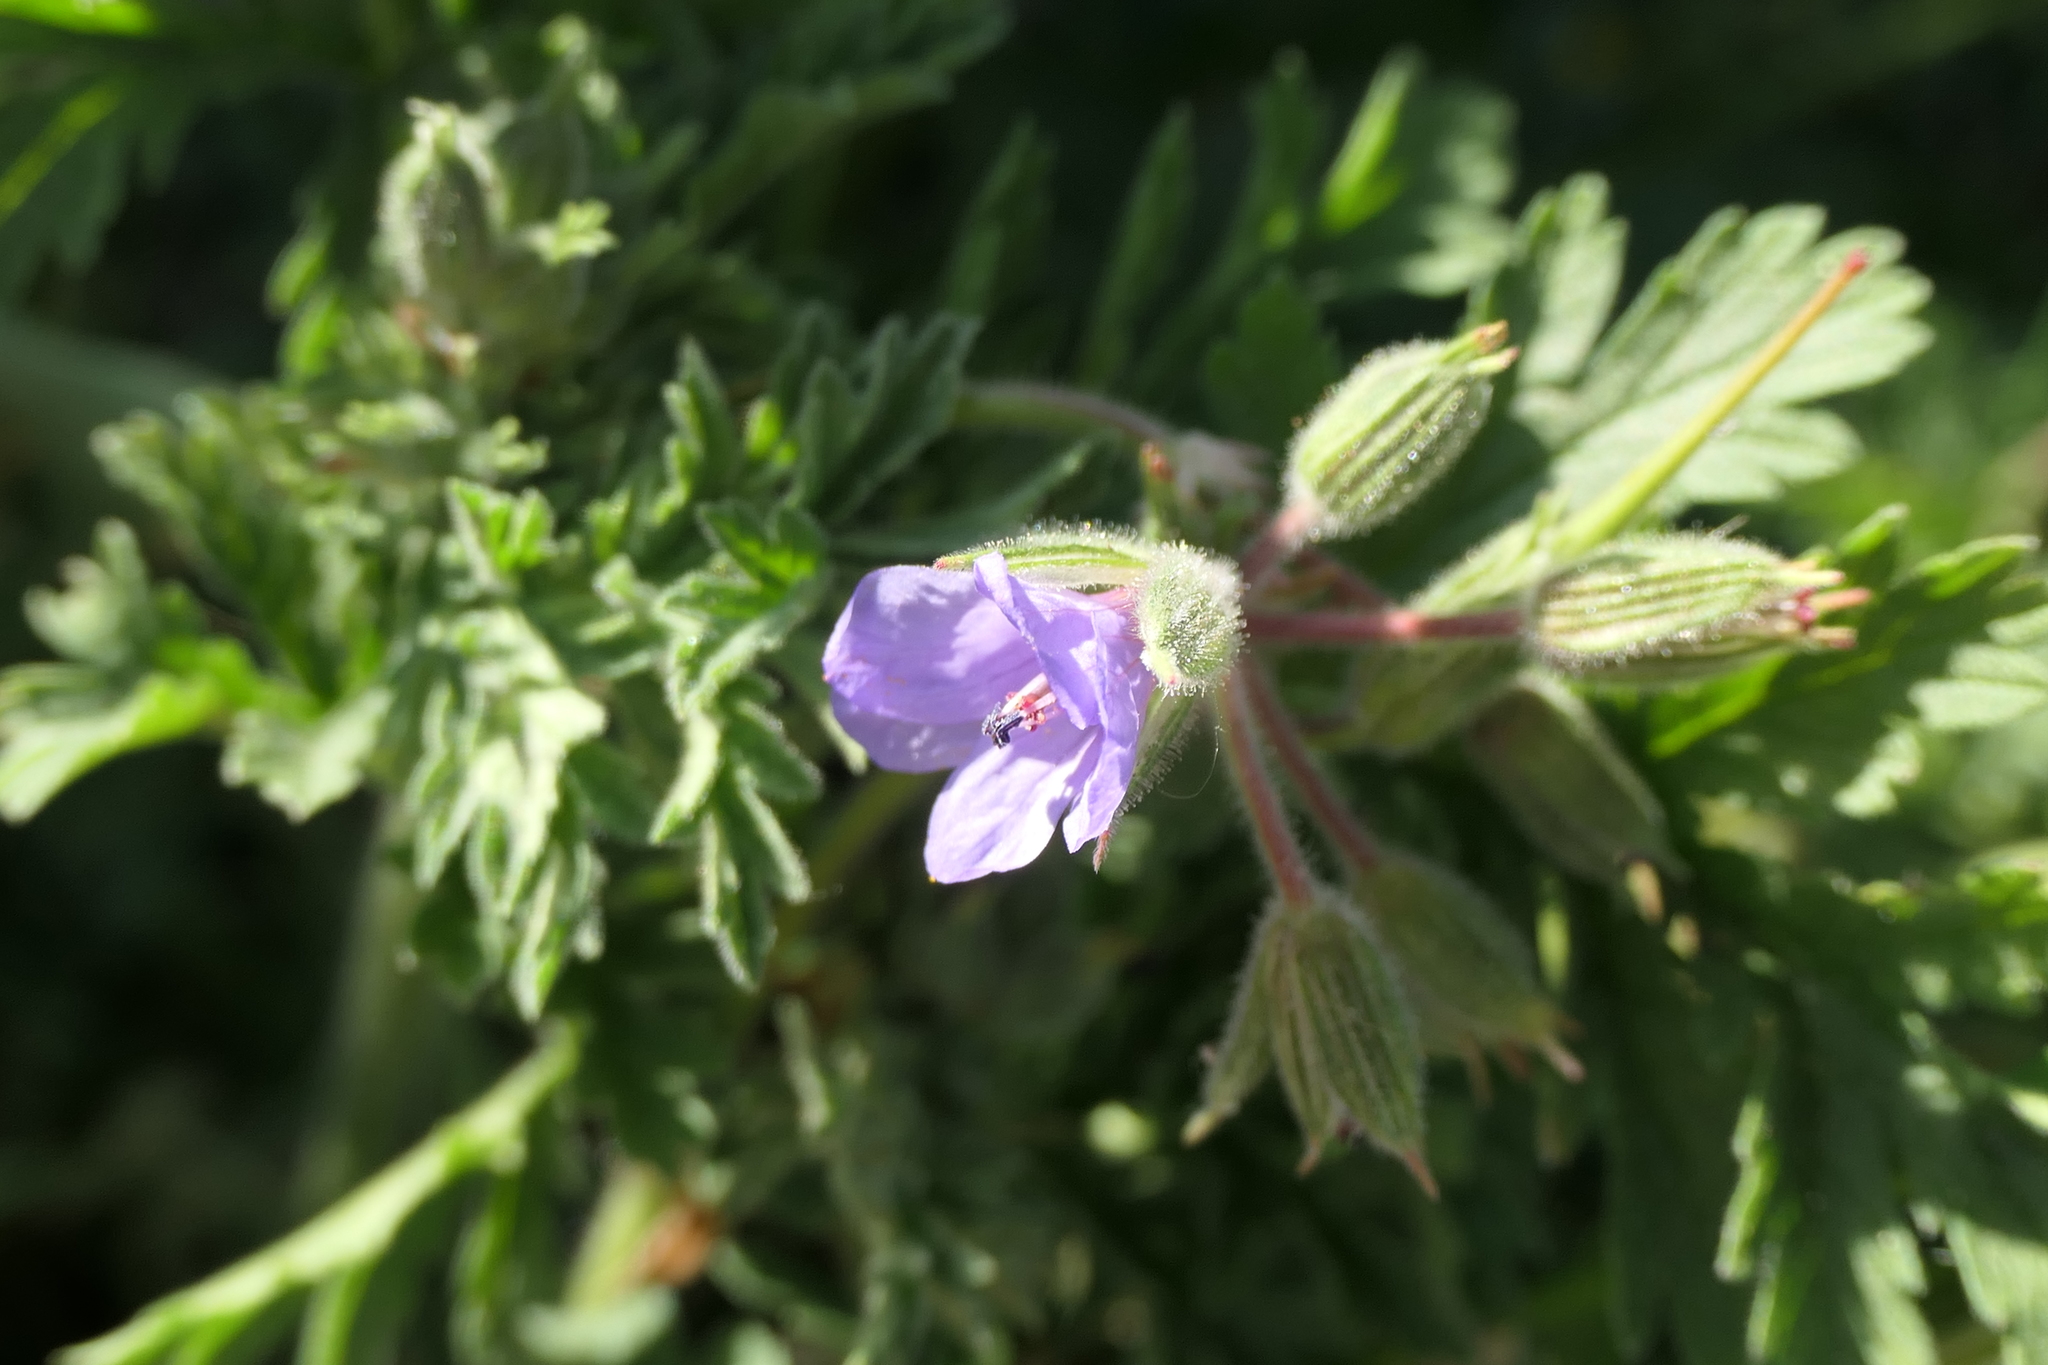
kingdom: Plantae
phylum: Tracheophyta
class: Magnoliopsida
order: Geraniales
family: Geraniaceae
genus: Erodium
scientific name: Erodium ciconium
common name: Common stork's bill
